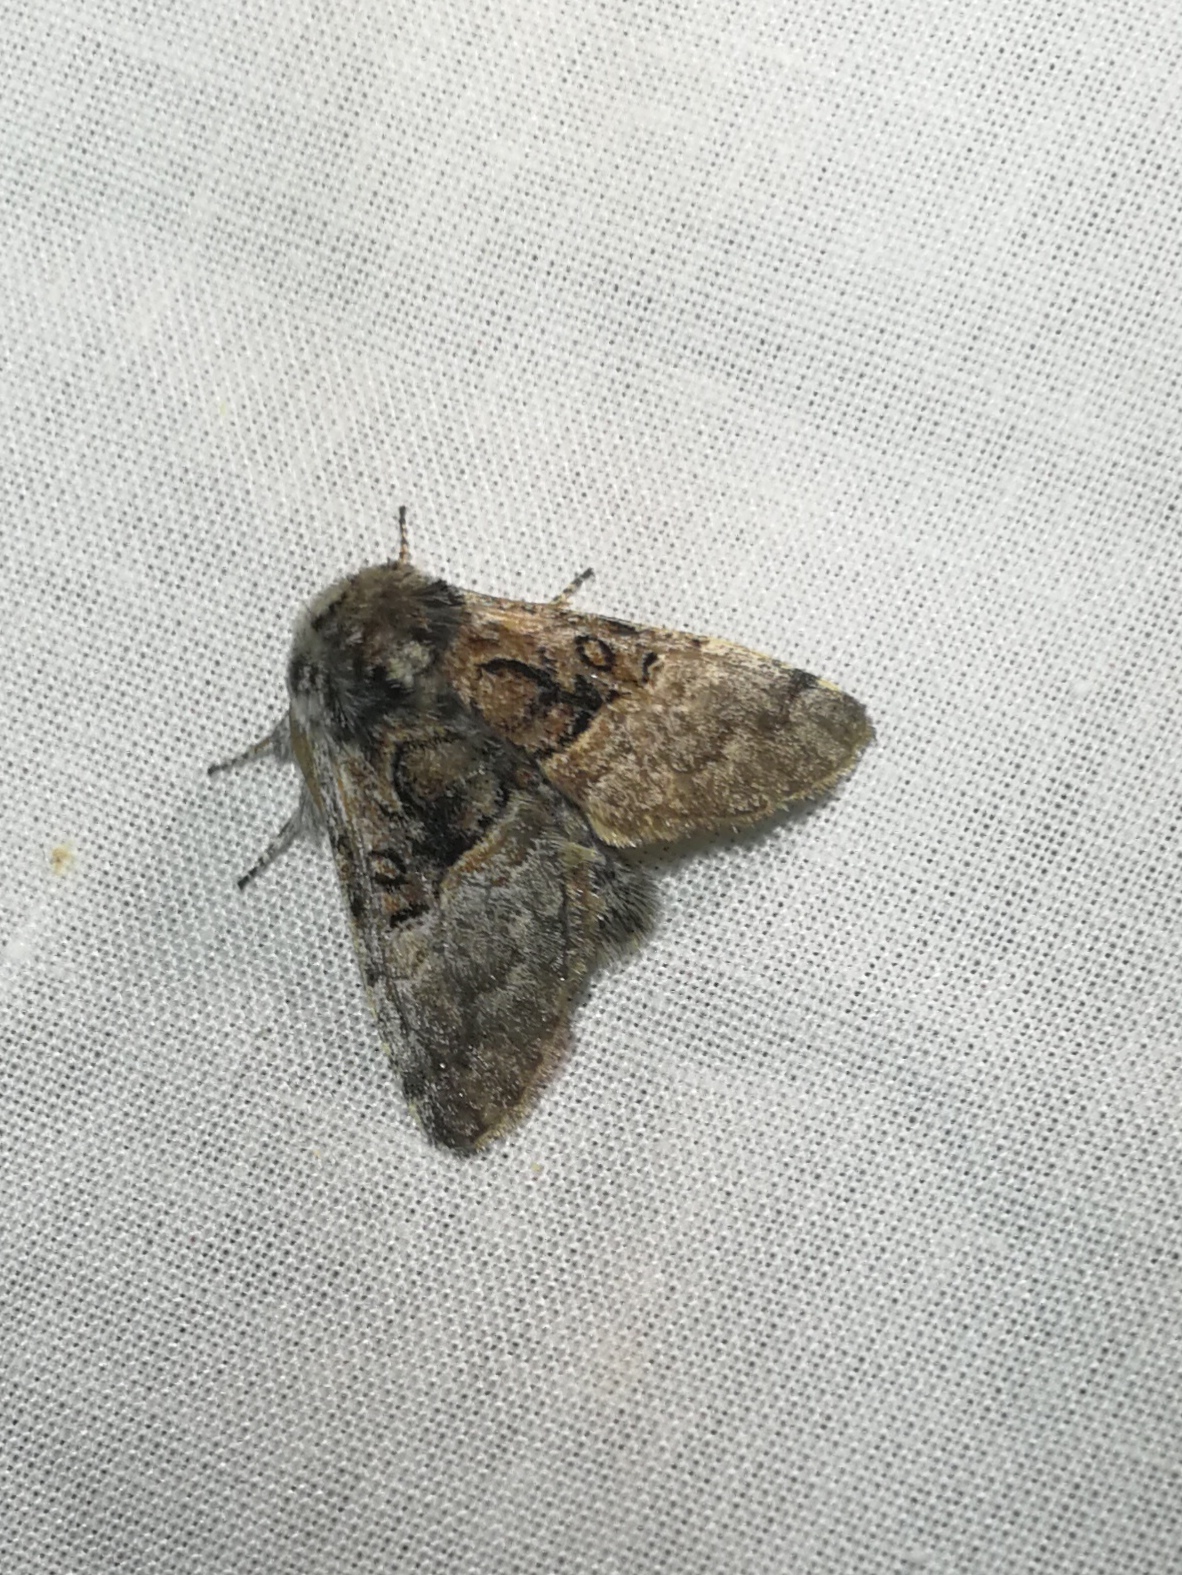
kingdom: Animalia
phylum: Arthropoda
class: Insecta
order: Lepidoptera
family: Noctuidae
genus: Colocasia
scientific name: Colocasia coryli
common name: Nut-tree tussock
